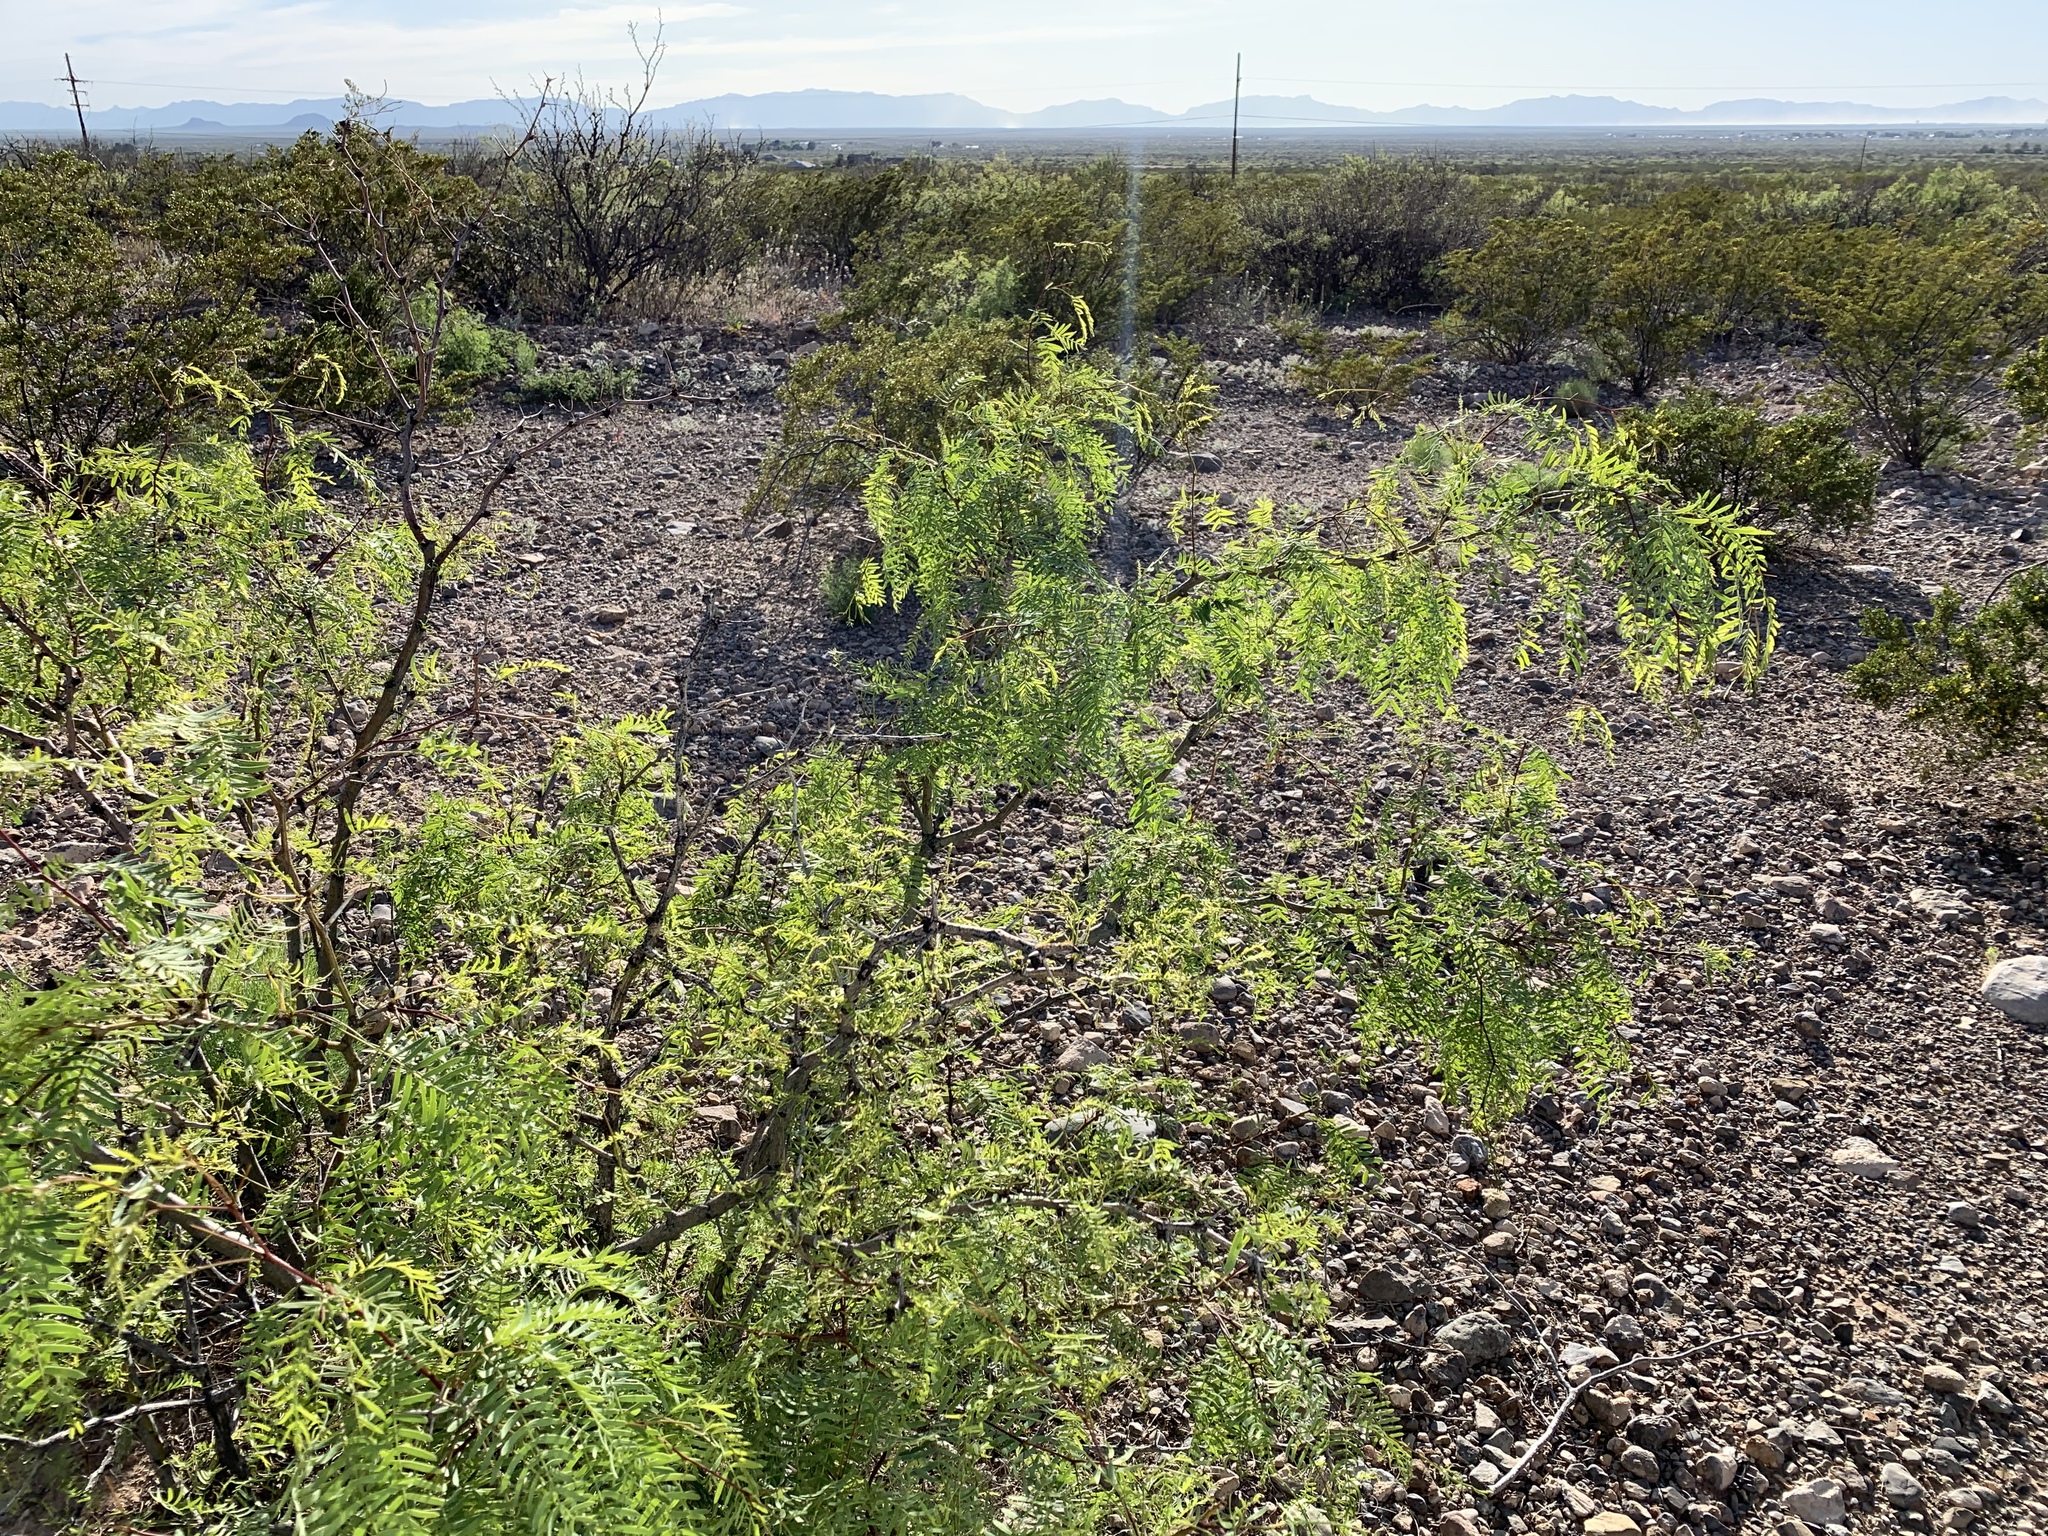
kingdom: Plantae
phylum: Tracheophyta
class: Magnoliopsida
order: Fabales
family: Fabaceae
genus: Prosopis
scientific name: Prosopis glandulosa
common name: Honey mesquite
